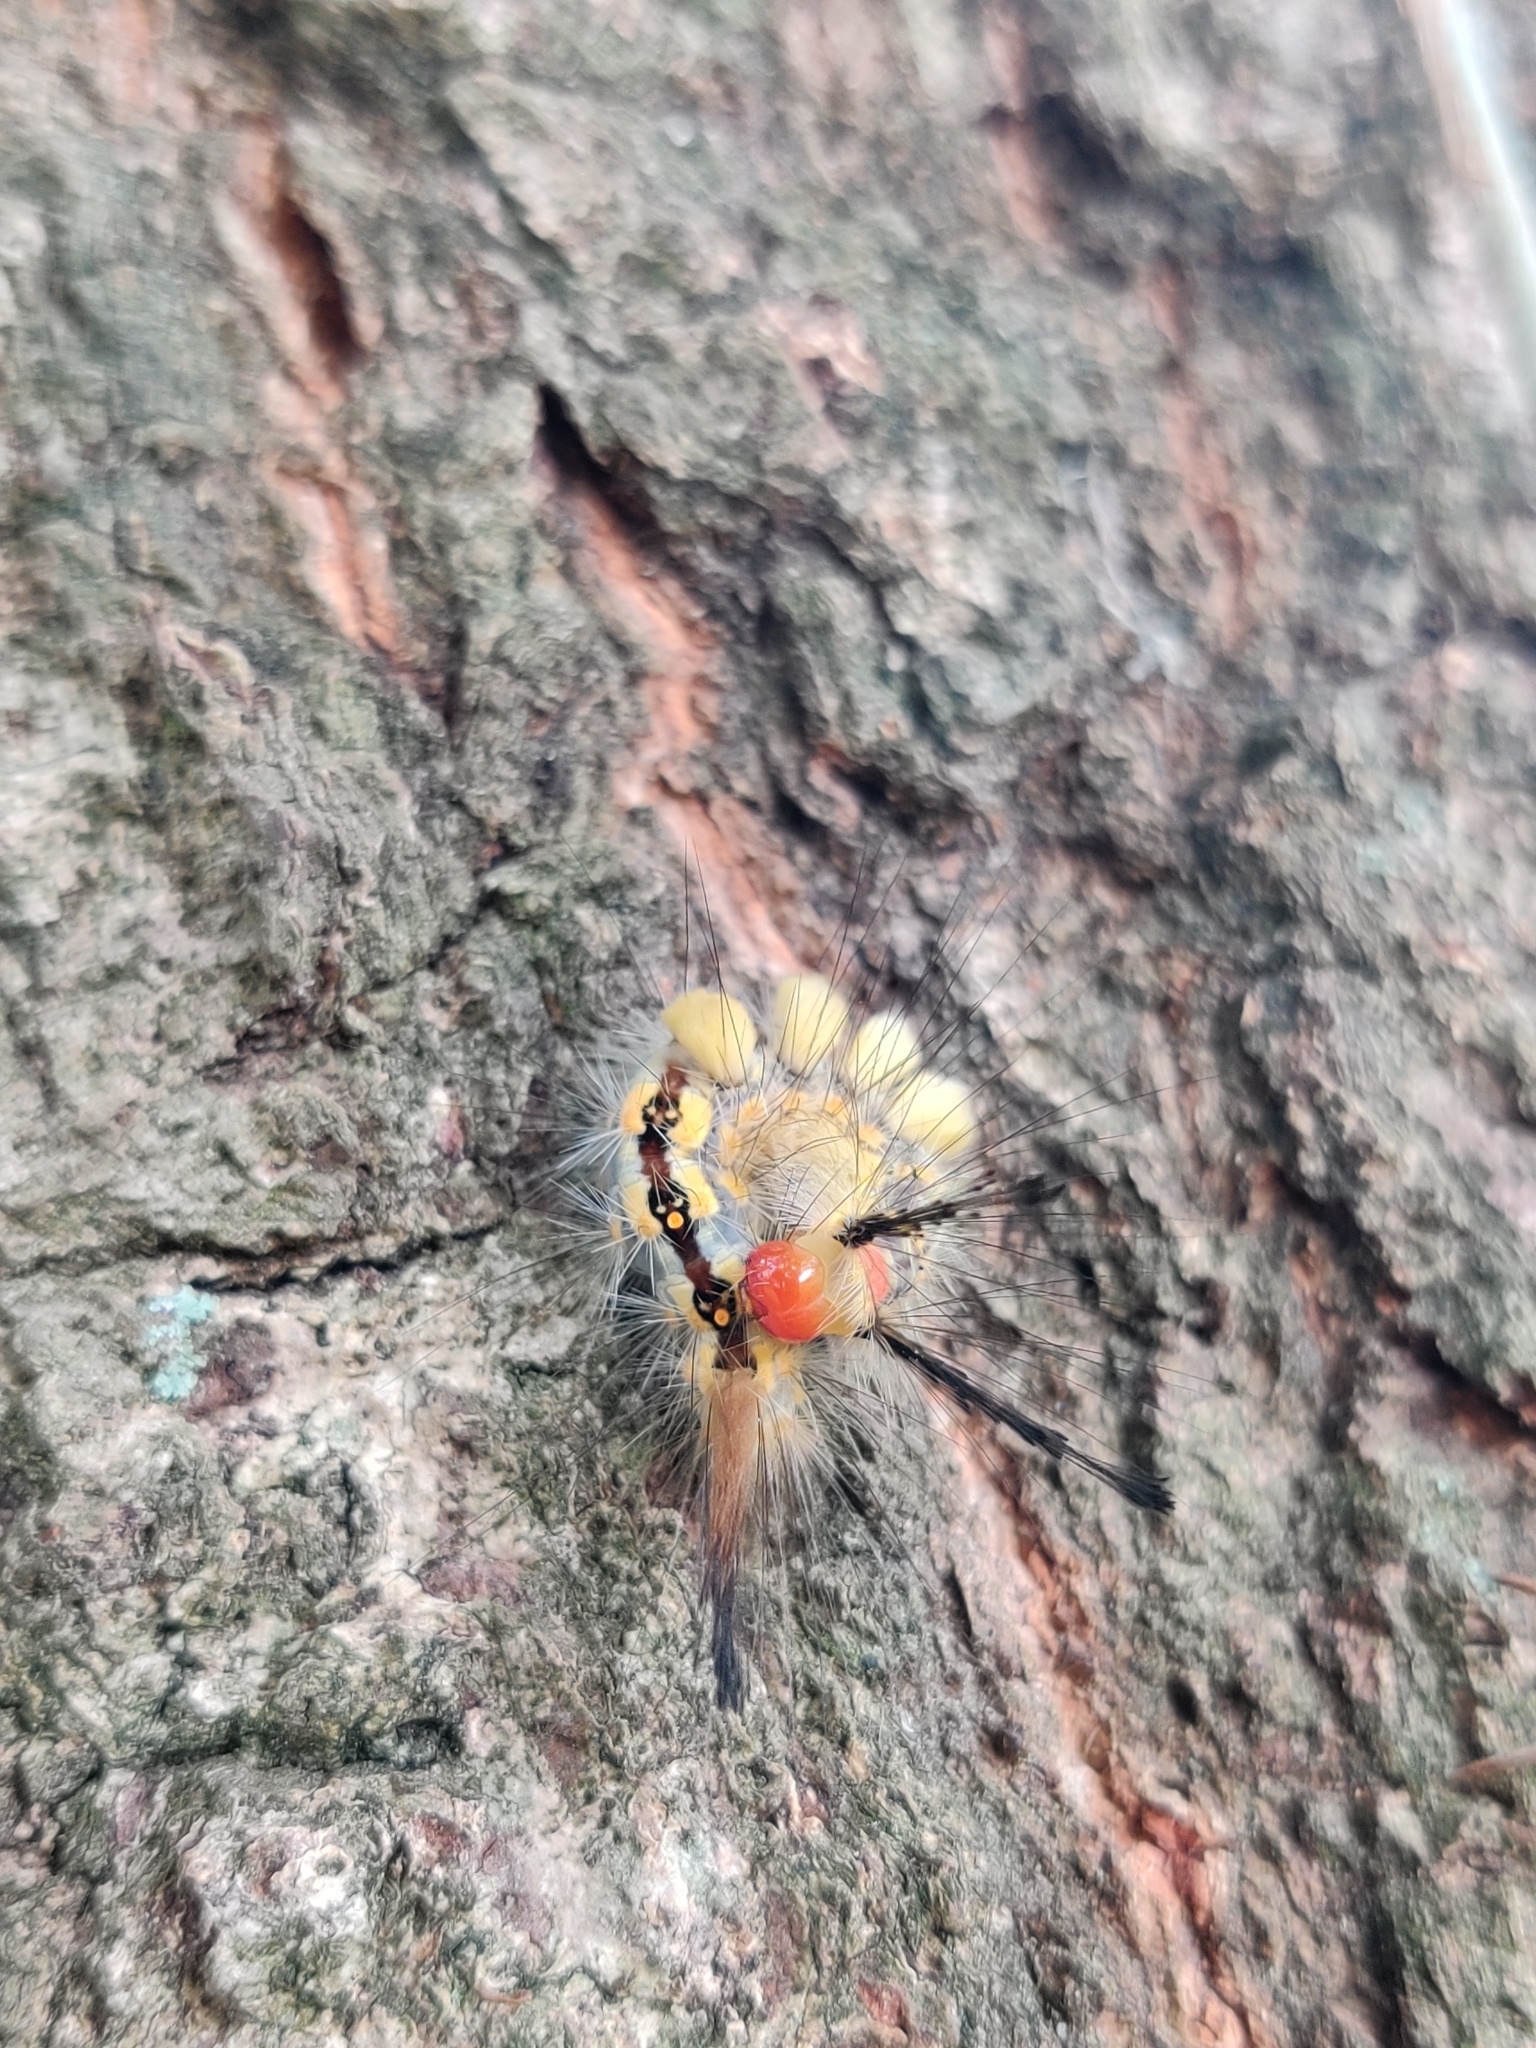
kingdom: Animalia
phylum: Arthropoda
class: Insecta
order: Lepidoptera
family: Erebidae
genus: Orgyia
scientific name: Orgyia detrita
